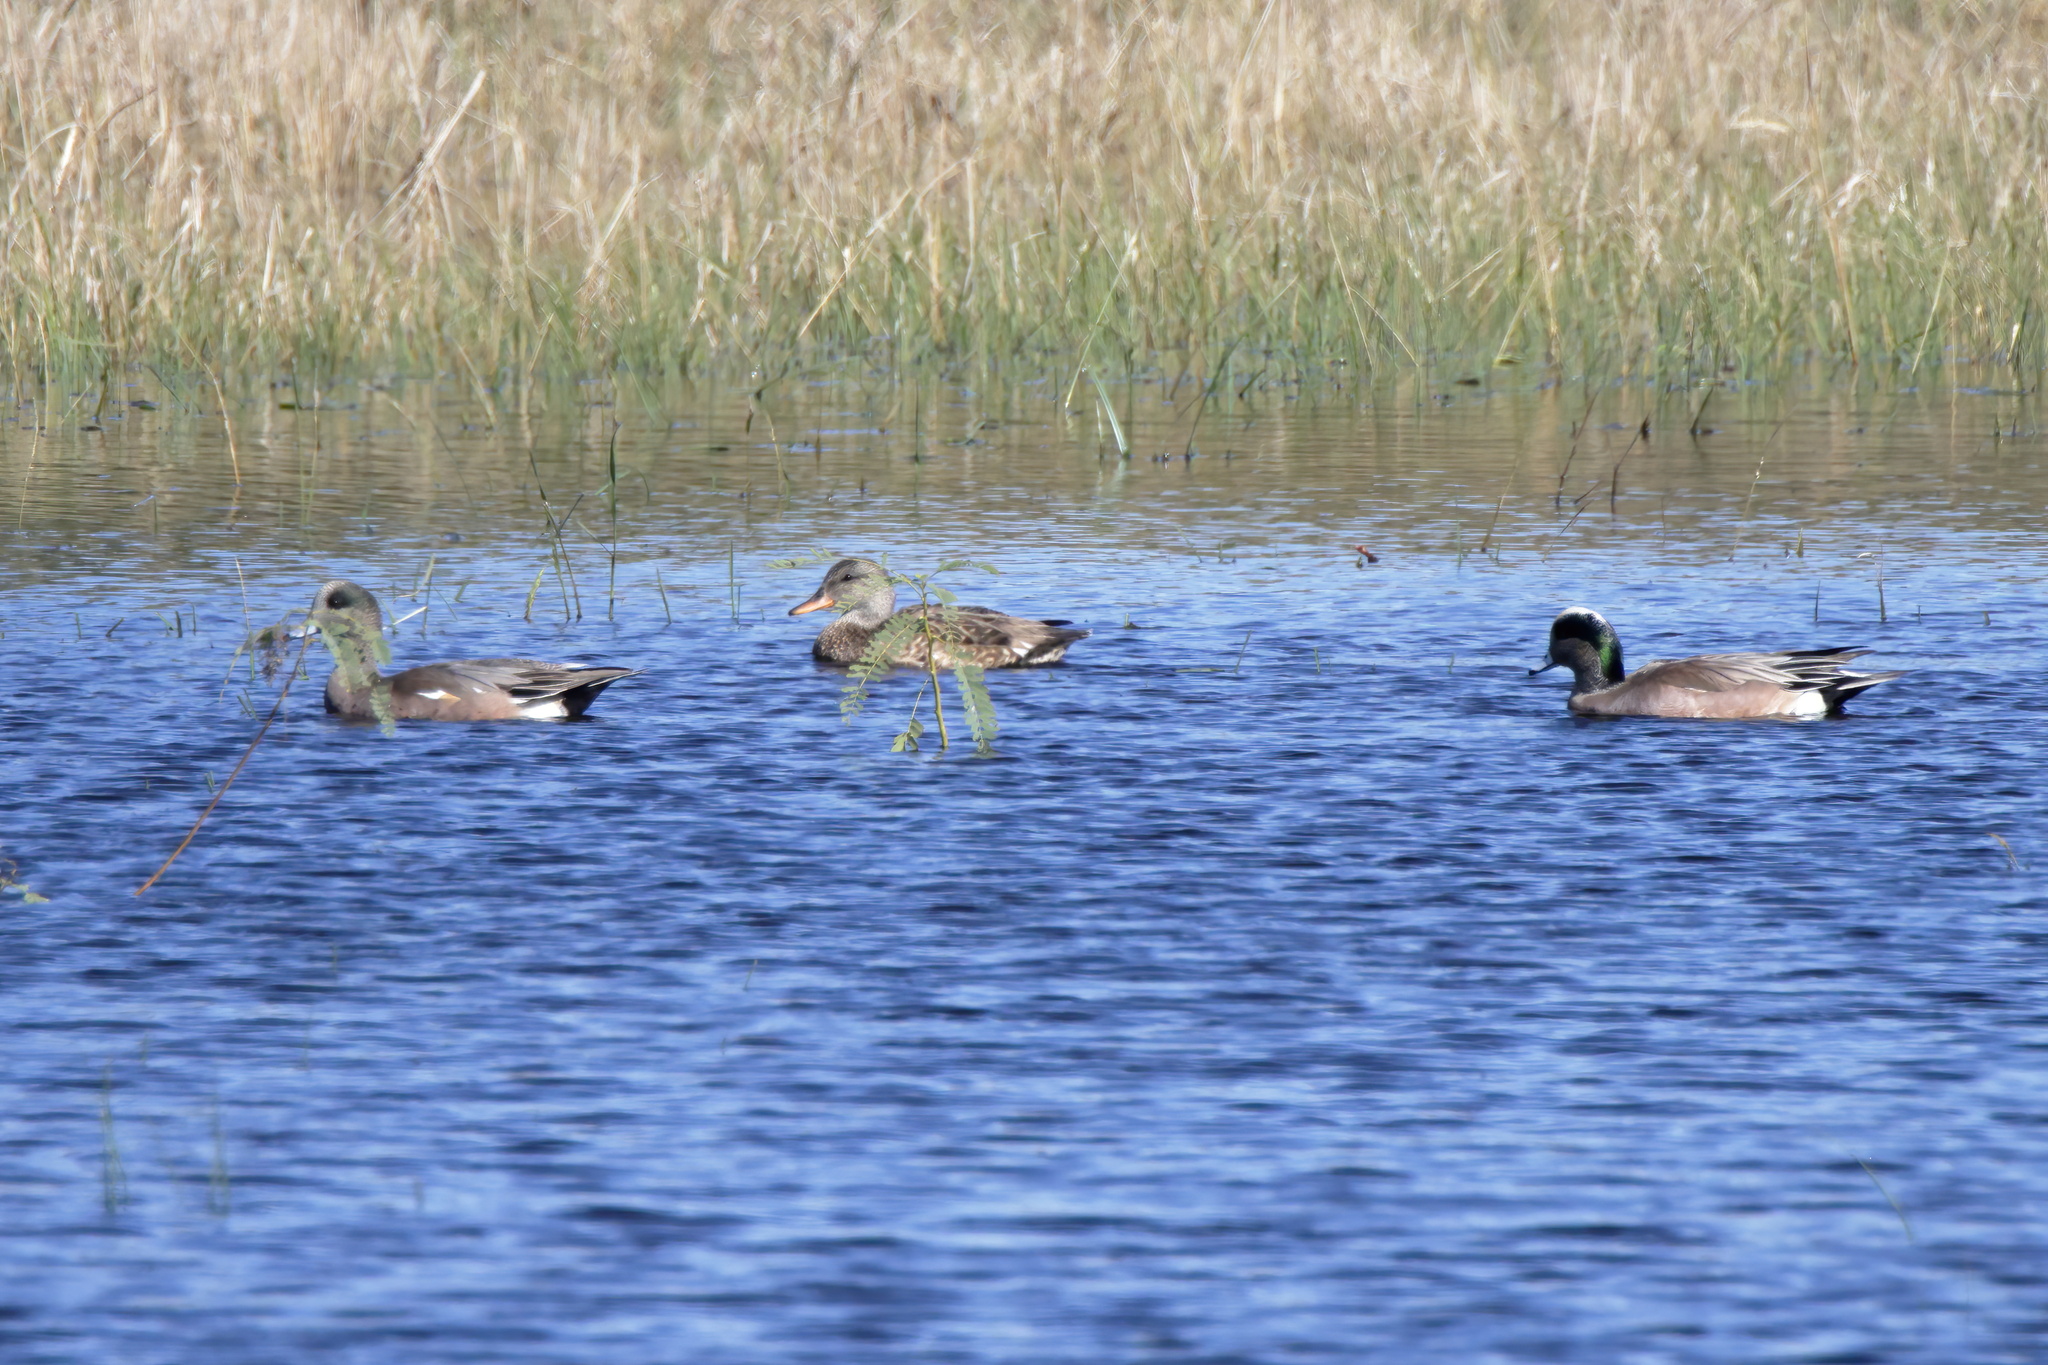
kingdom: Animalia
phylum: Chordata
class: Aves
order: Anseriformes
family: Anatidae
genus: Mareca
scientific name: Mareca americana
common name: American wigeon
